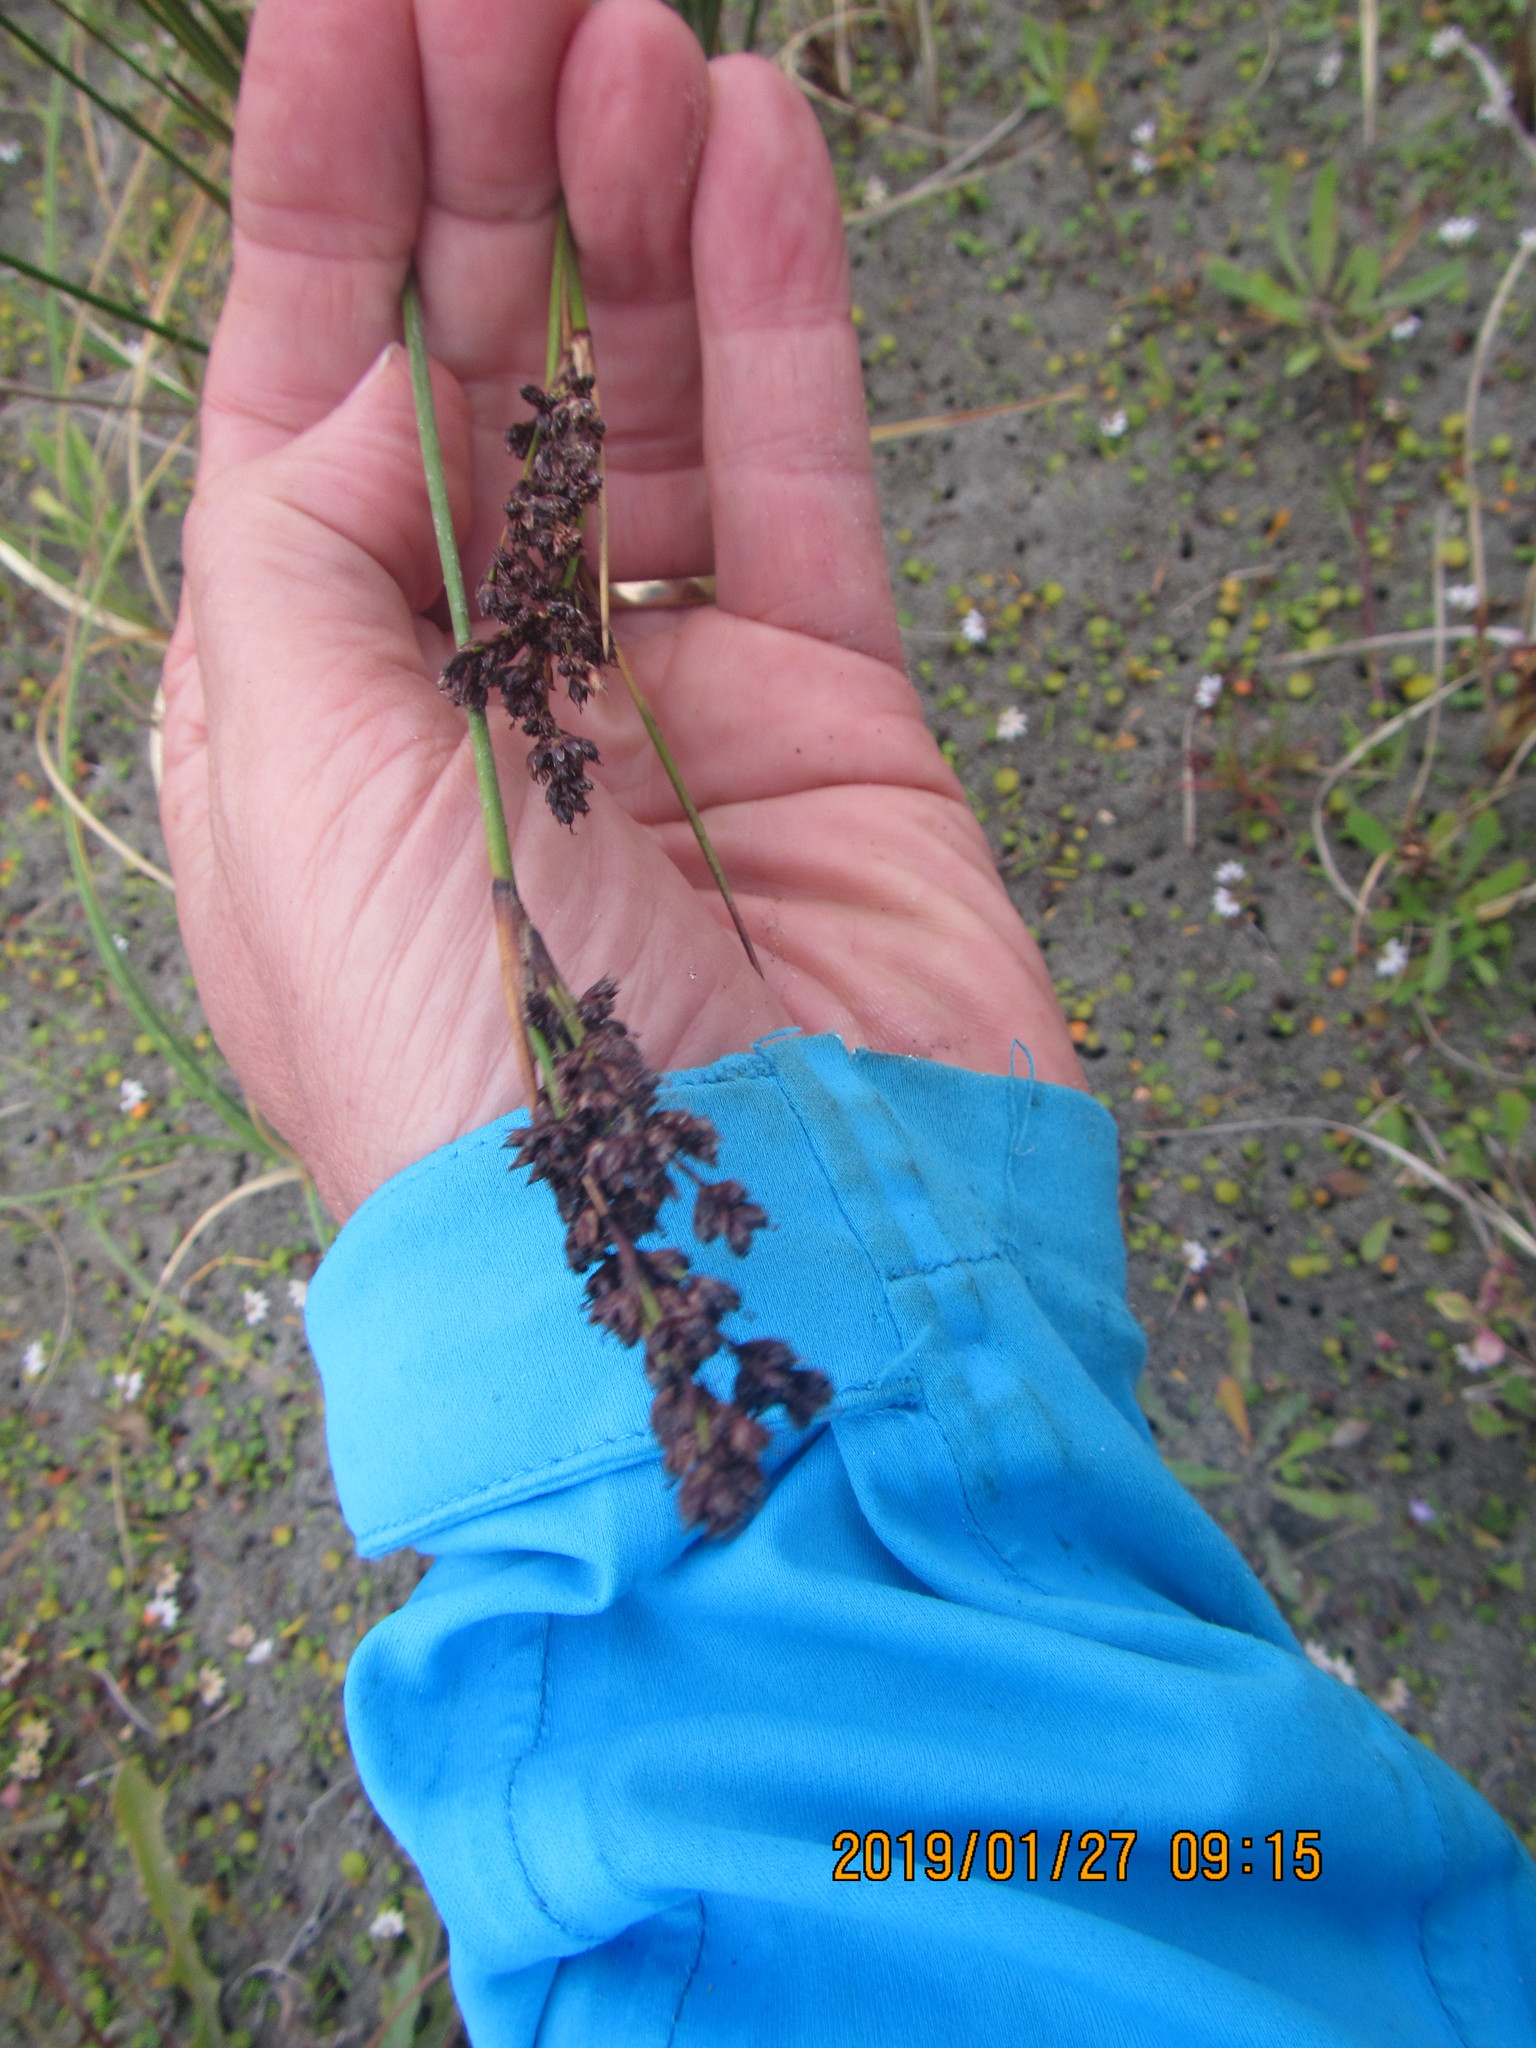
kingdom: Plantae
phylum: Tracheophyta
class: Liliopsida
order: Poales
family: Juncaceae
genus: Juncus
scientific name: Juncus kraussii
